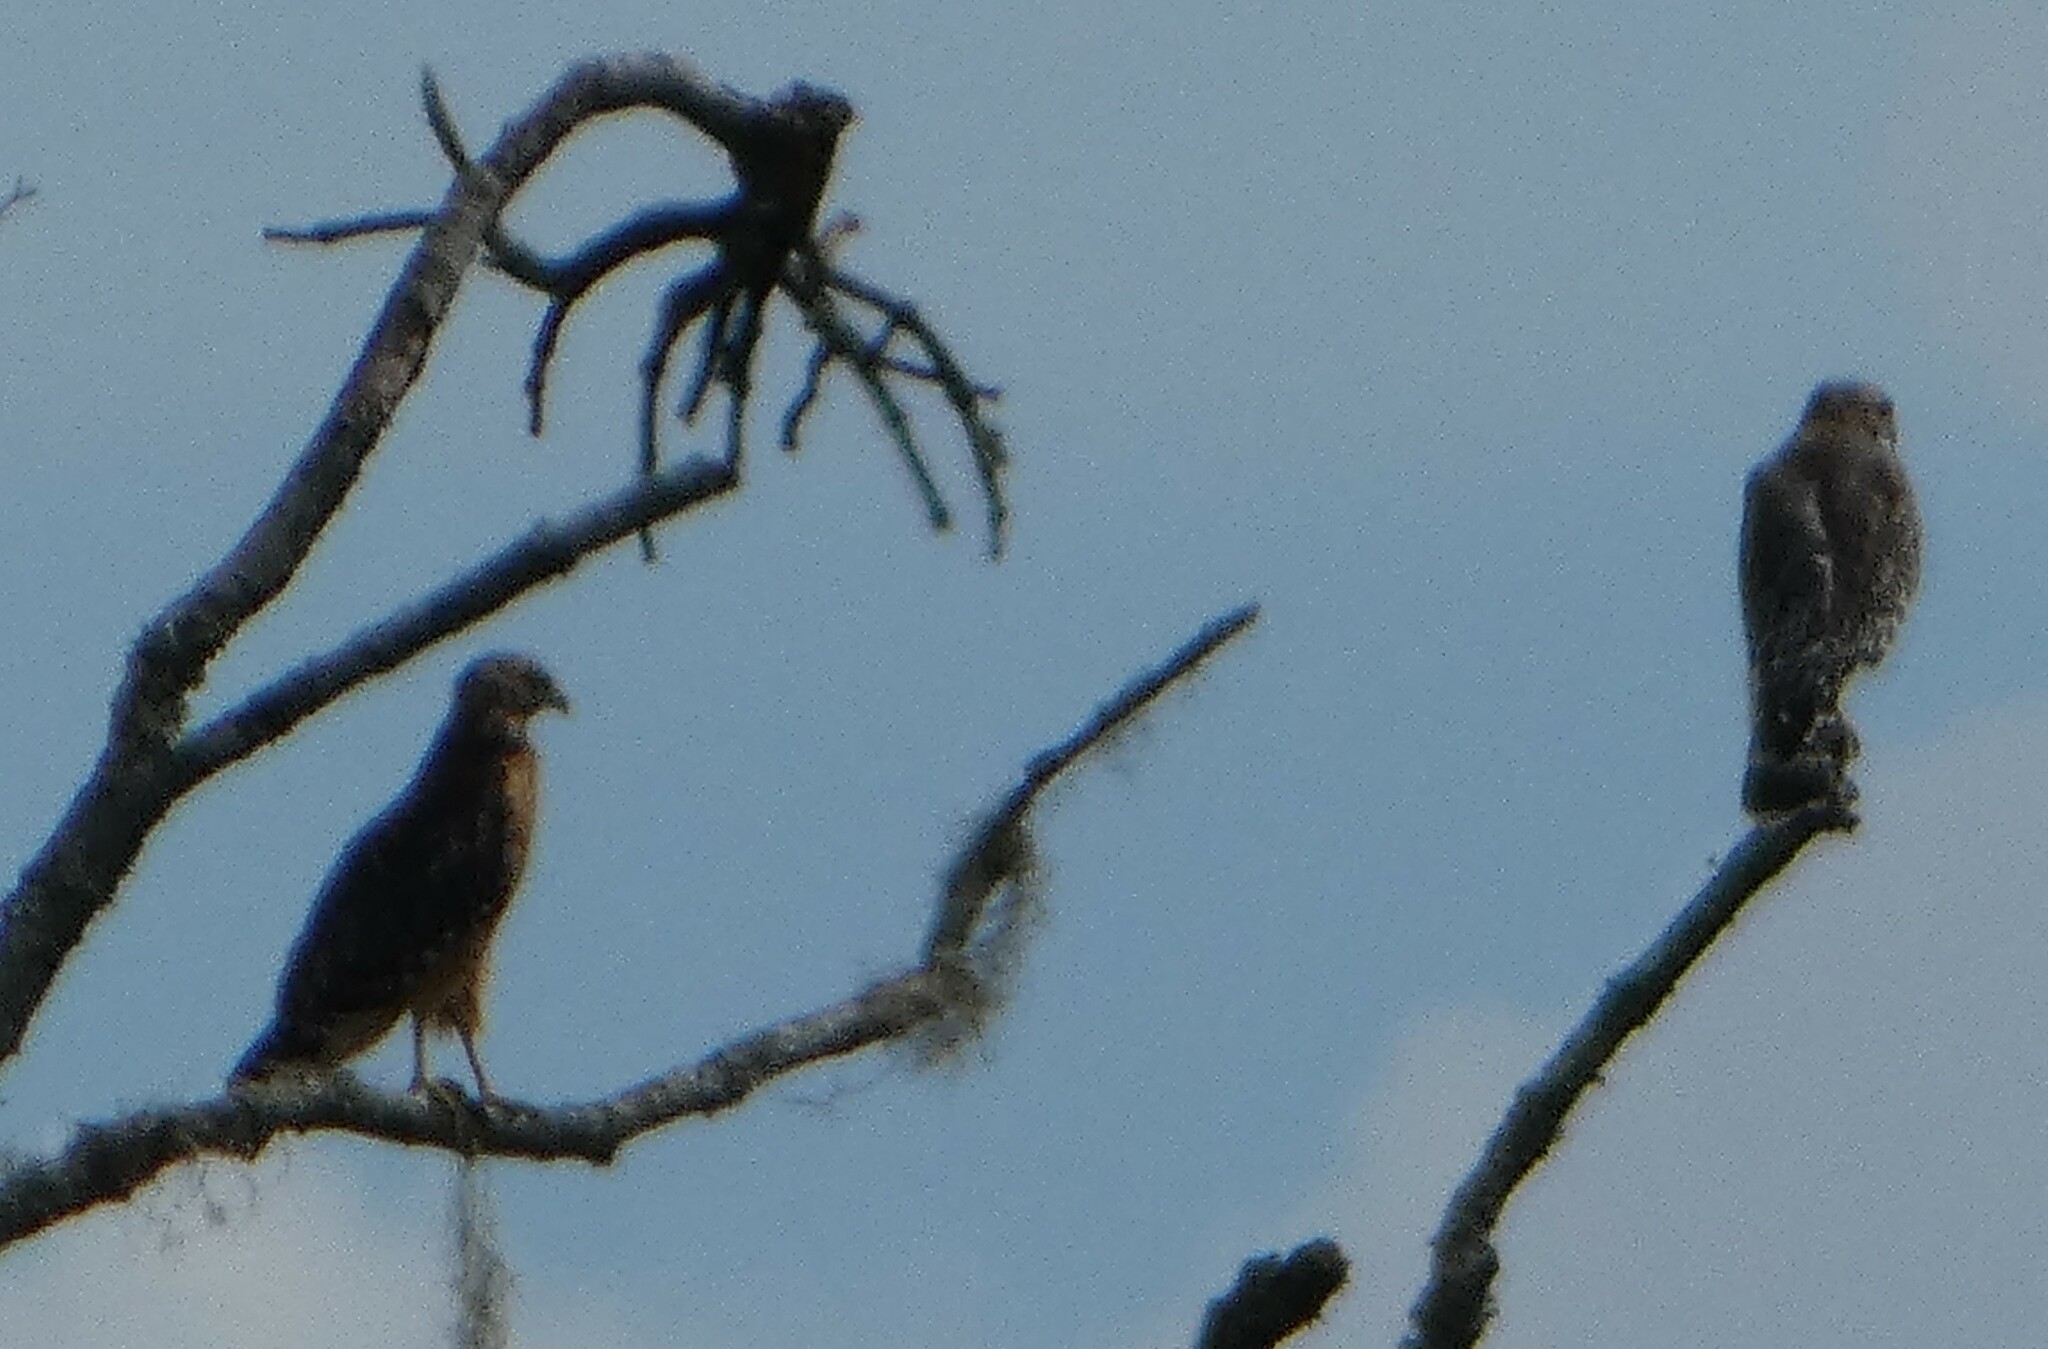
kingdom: Animalia
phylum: Chordata
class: Aves
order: Accipitriformes
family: Accipitridae
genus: Buteo
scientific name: Buteo lineatus
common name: Red-shouldered hawk
